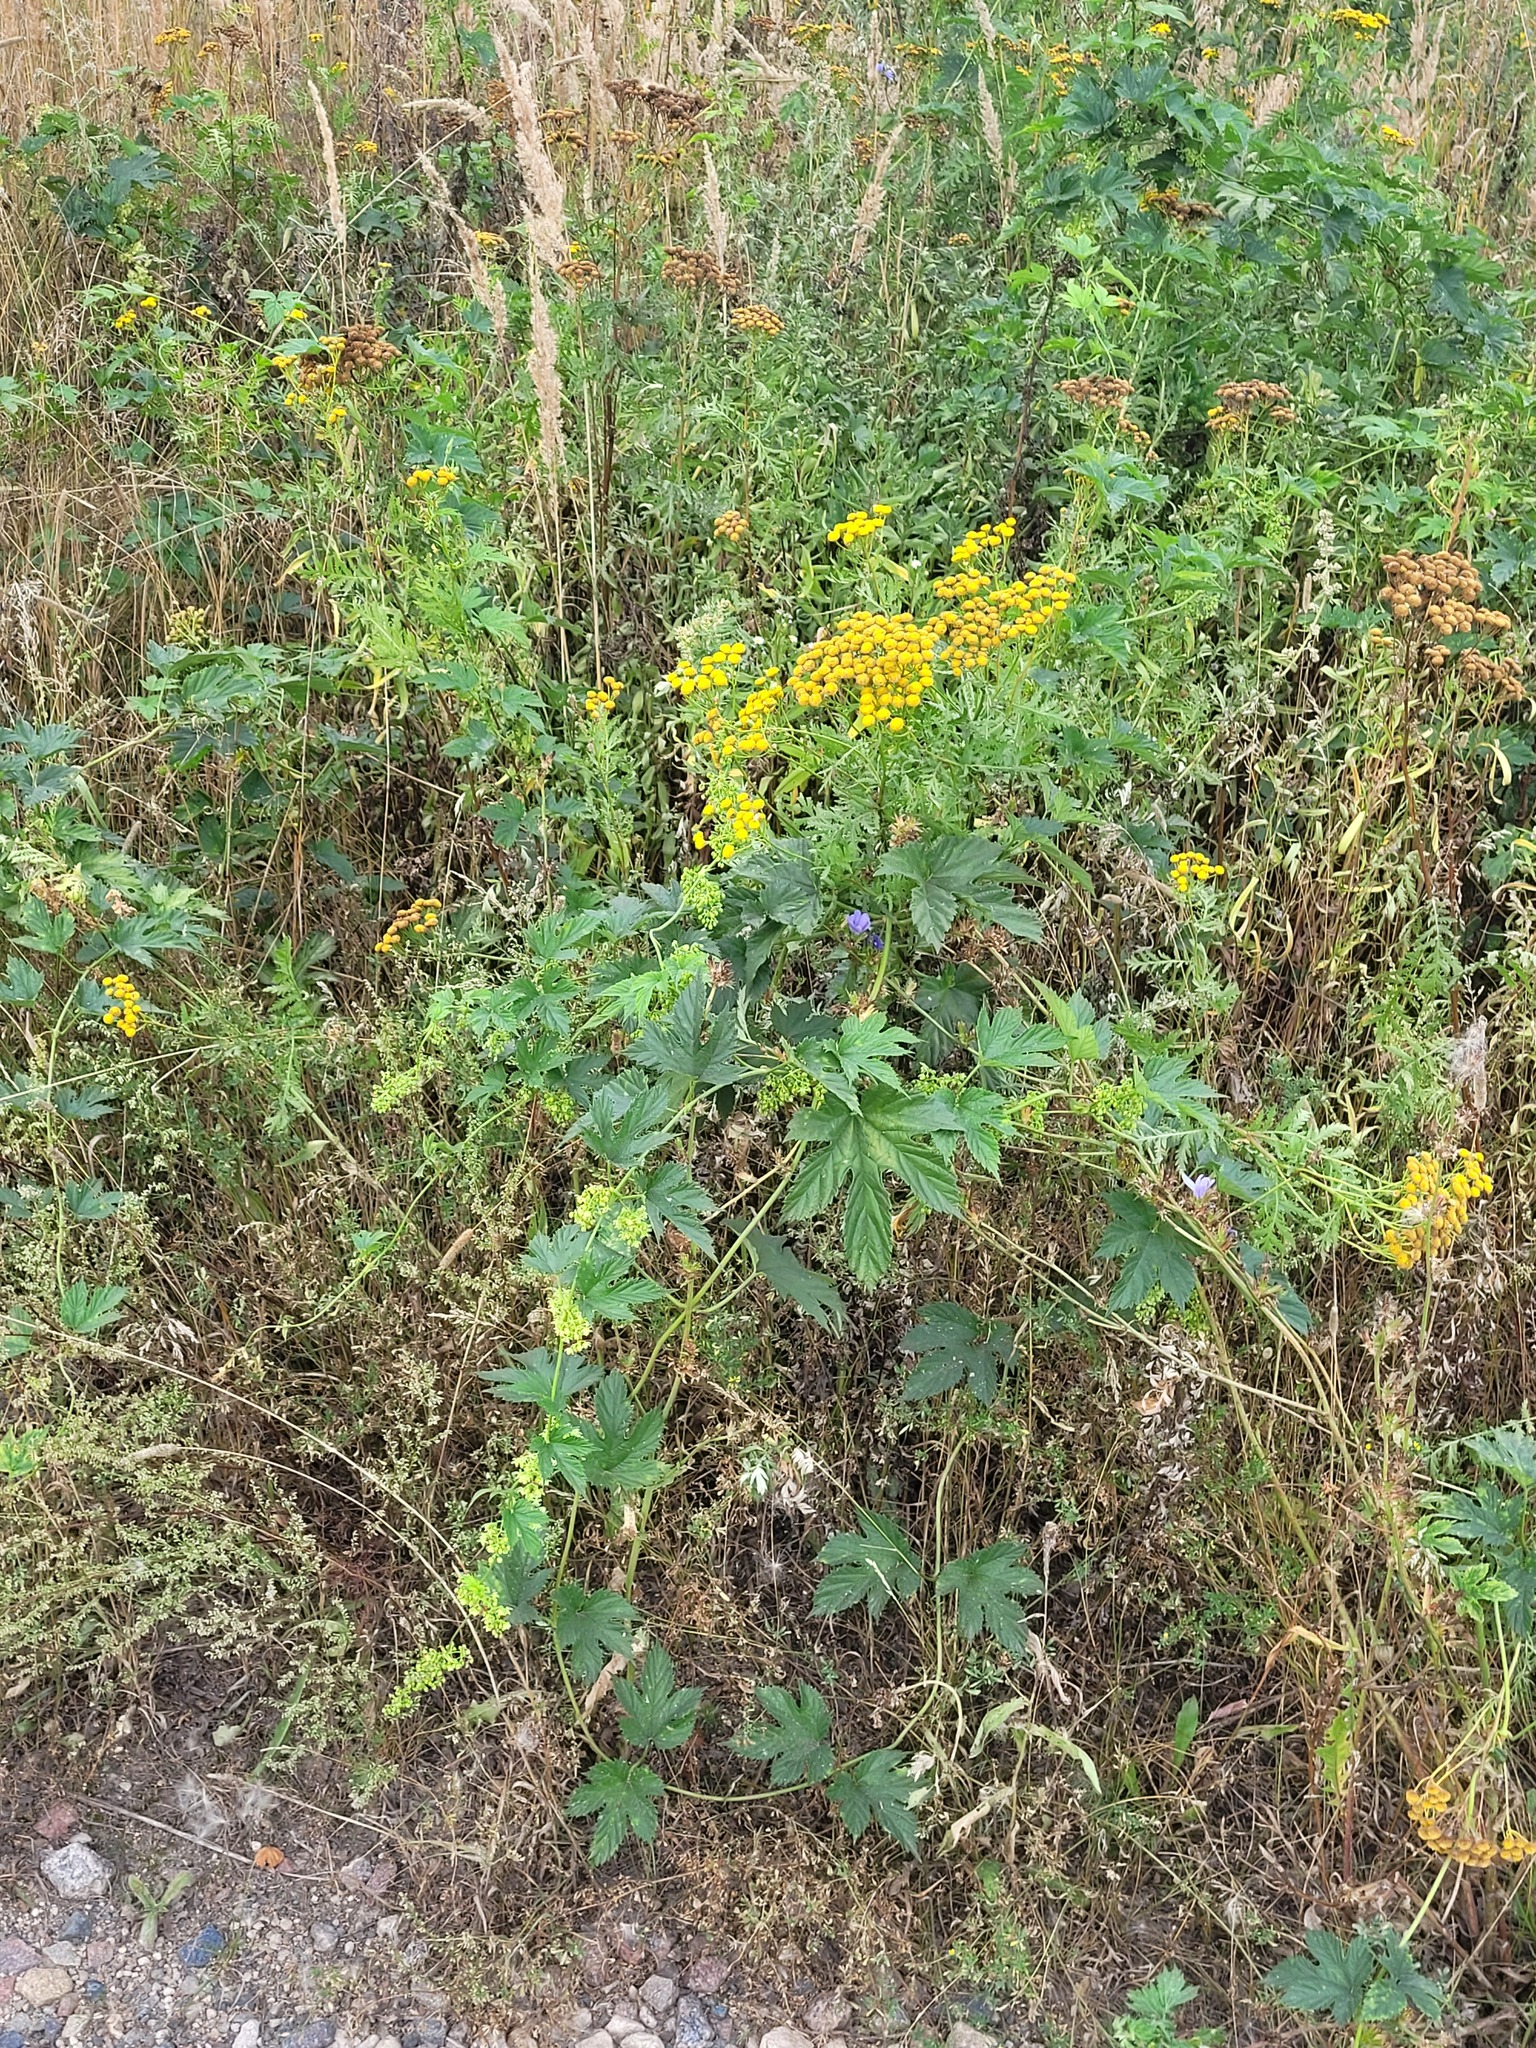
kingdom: Plantae
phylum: Tracheophyta
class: Magnoliopsida
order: Rosales
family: Cannabaceae
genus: Humulus
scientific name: Humulus lupulus
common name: Hop
